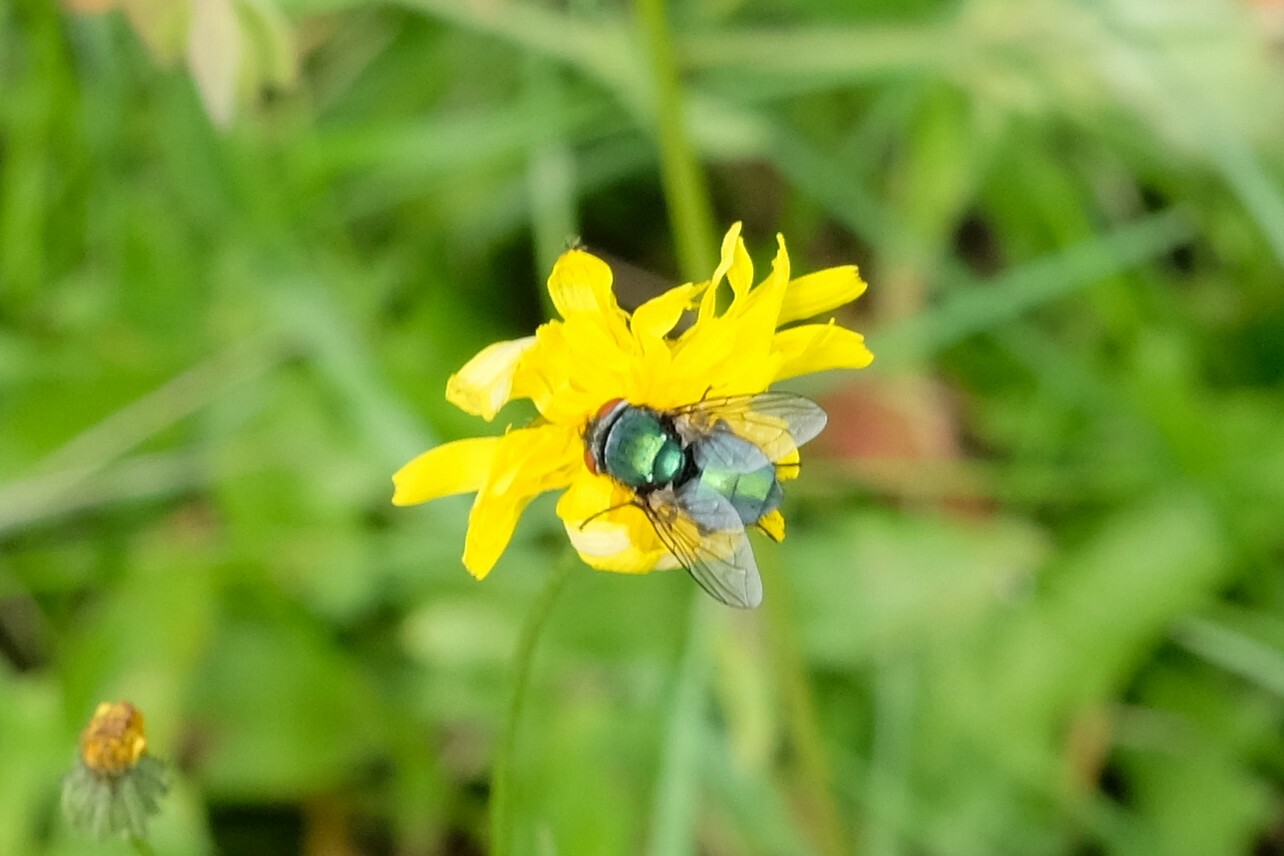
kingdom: Animalia
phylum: Arthropoda
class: Insecta
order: Diptera
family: Calliphoridae
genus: Lucilia
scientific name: Lucilia
